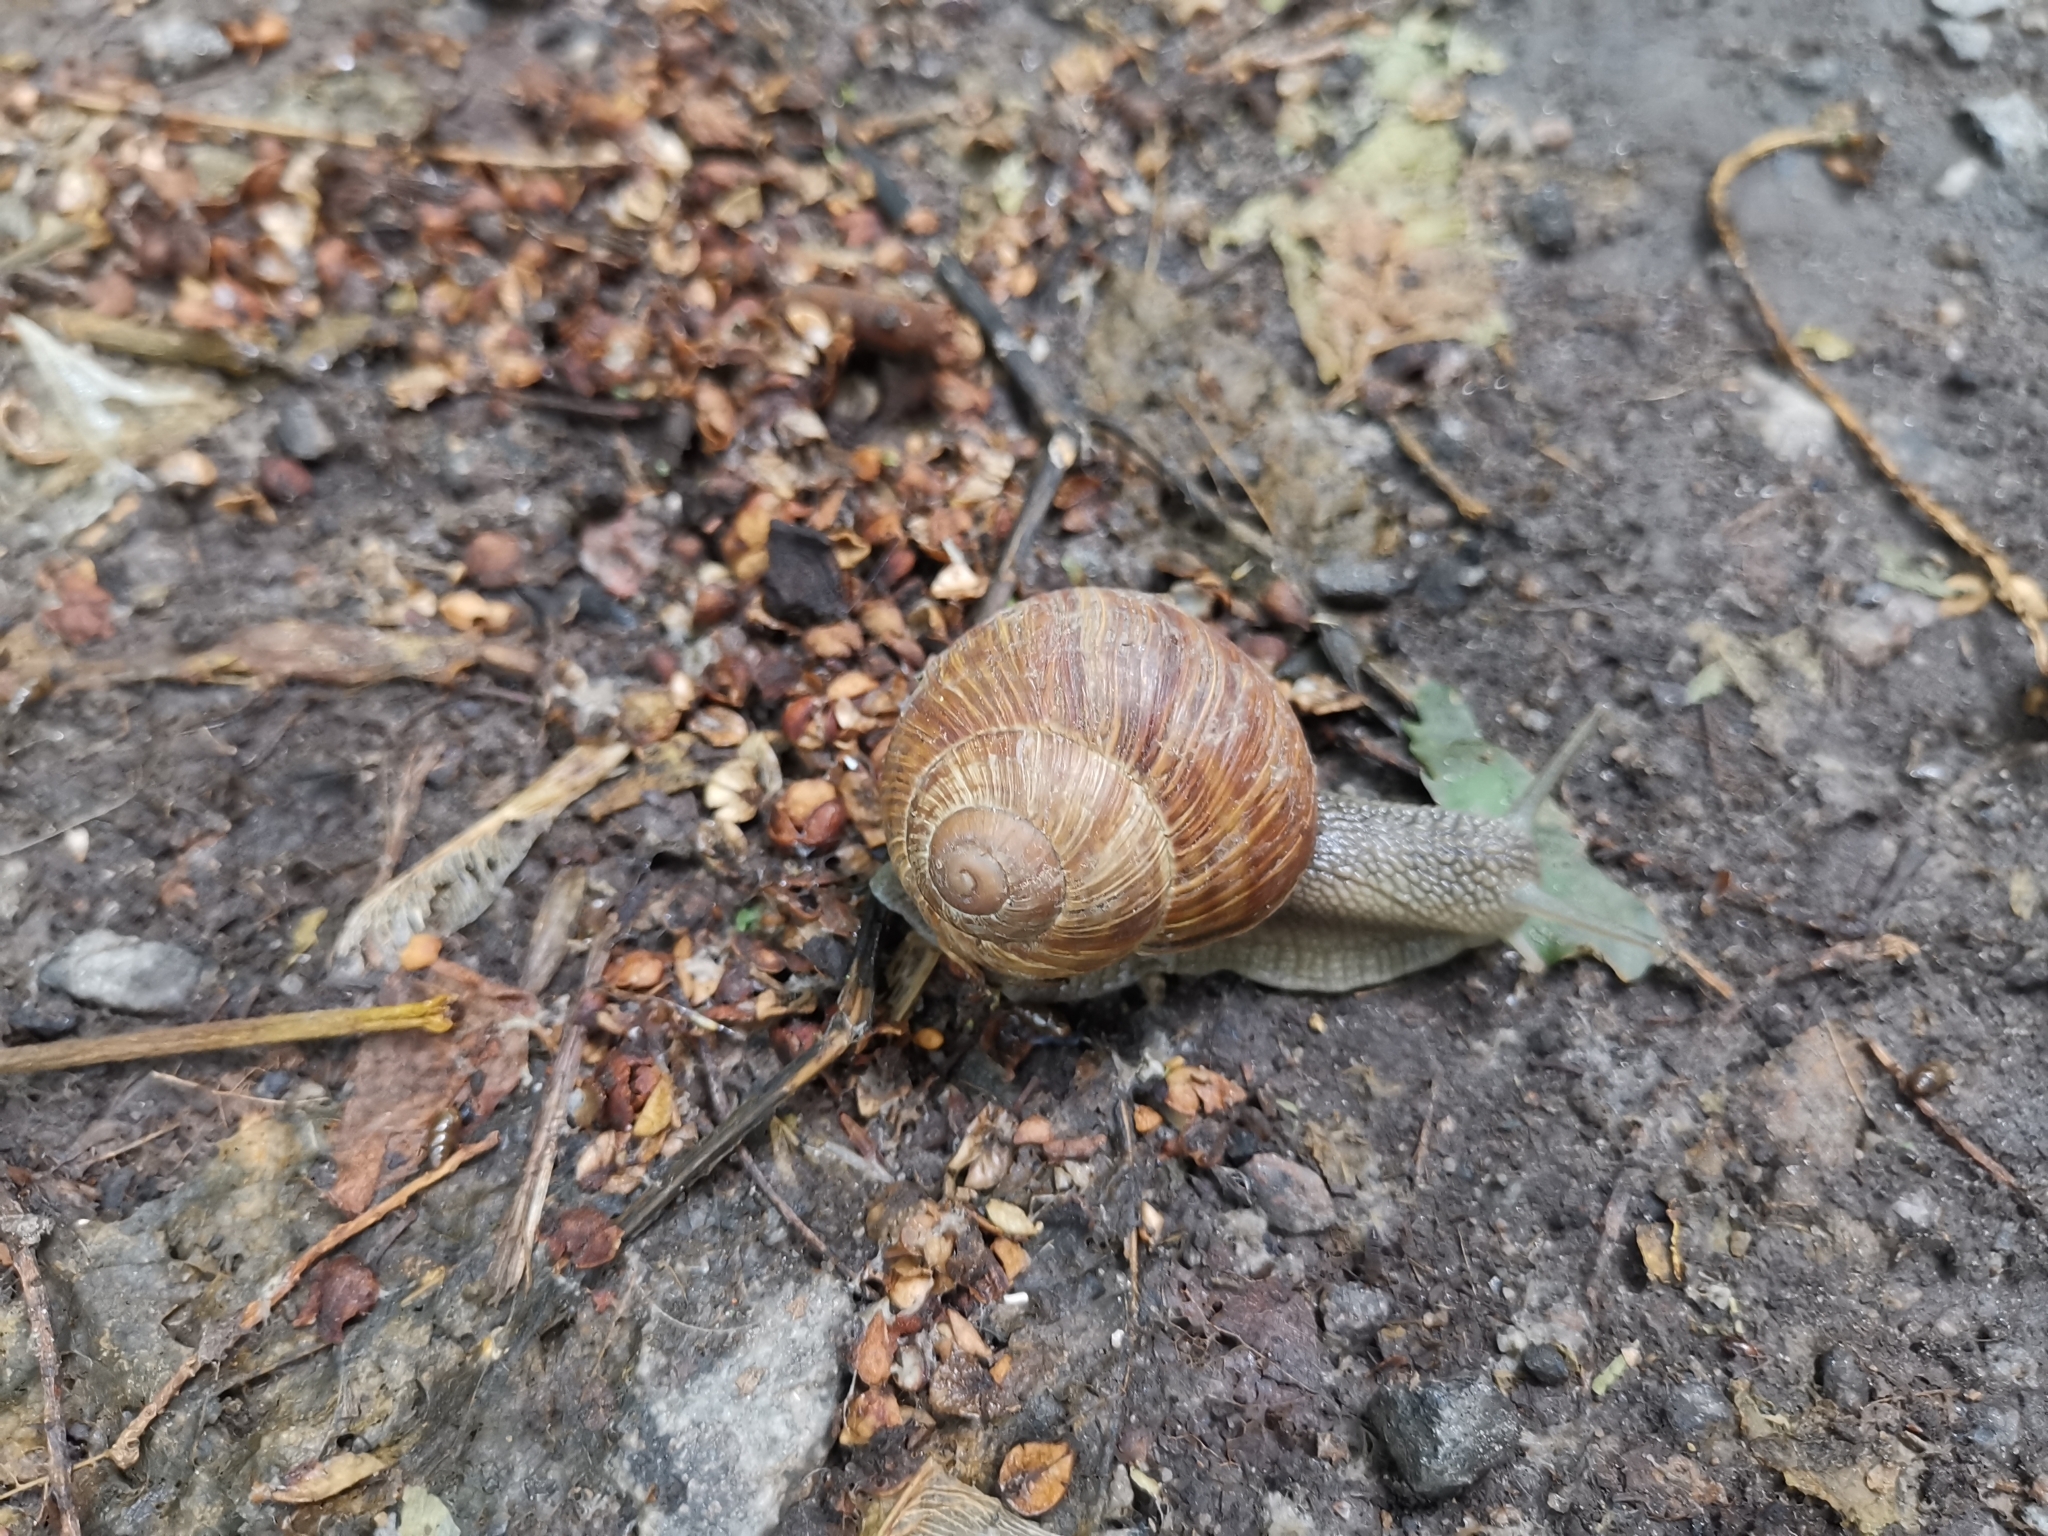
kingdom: Animalia
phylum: Mollusca
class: Gastropoda
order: Stylommatophora
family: Helicidae
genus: Helix
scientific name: Helix pomatia
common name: Roman snail
